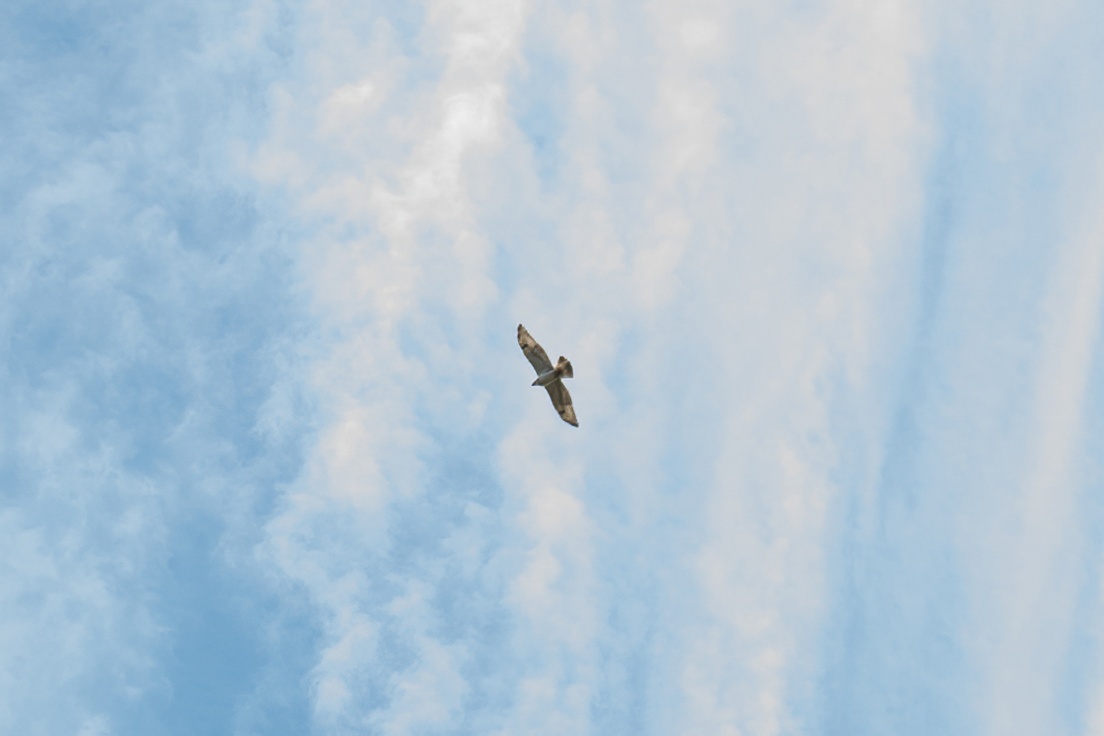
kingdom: Animalia
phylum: Chordata
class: Aves
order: Accipitriformes
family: Accipitridae
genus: Buteo
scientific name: Buteo regalis
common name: Ferruginous hawk
